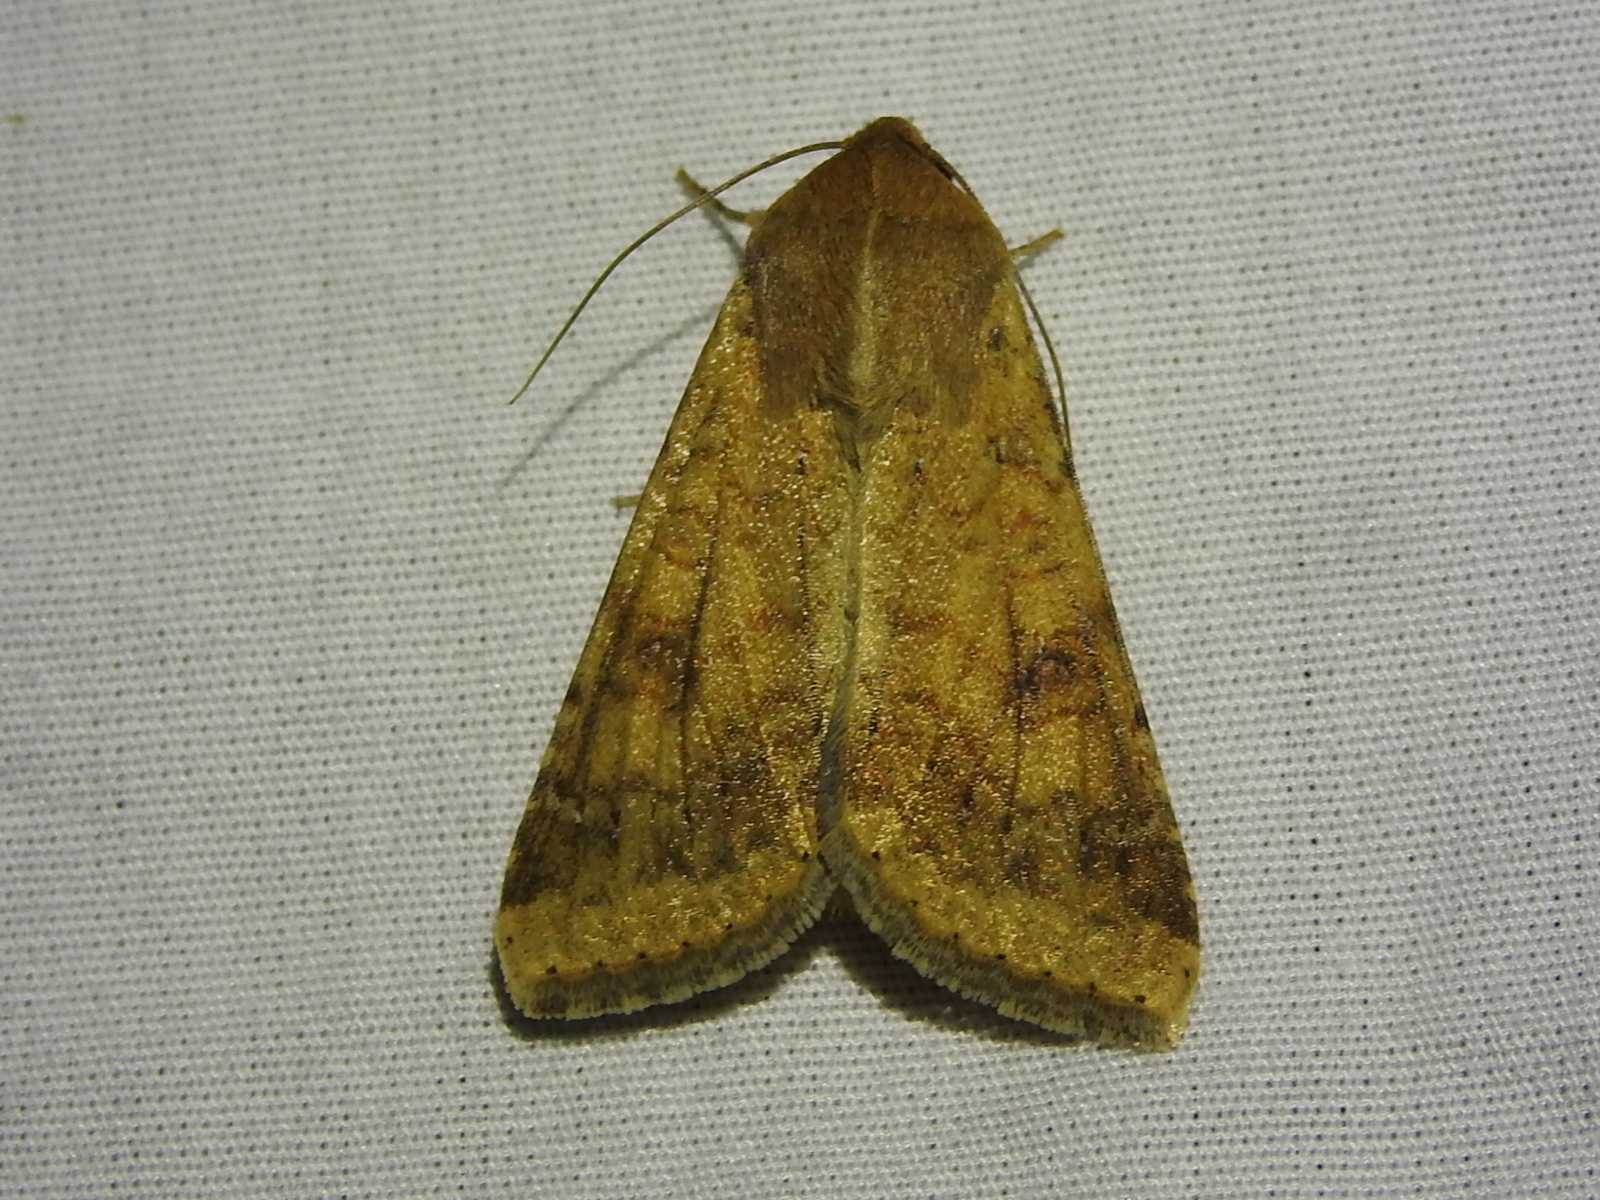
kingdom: Animalia
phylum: Arthropoda
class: Insecta
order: Lepidoptera
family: Noctuidae
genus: Helicoverpa
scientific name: Helicoverpa zea
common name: Bollworm
